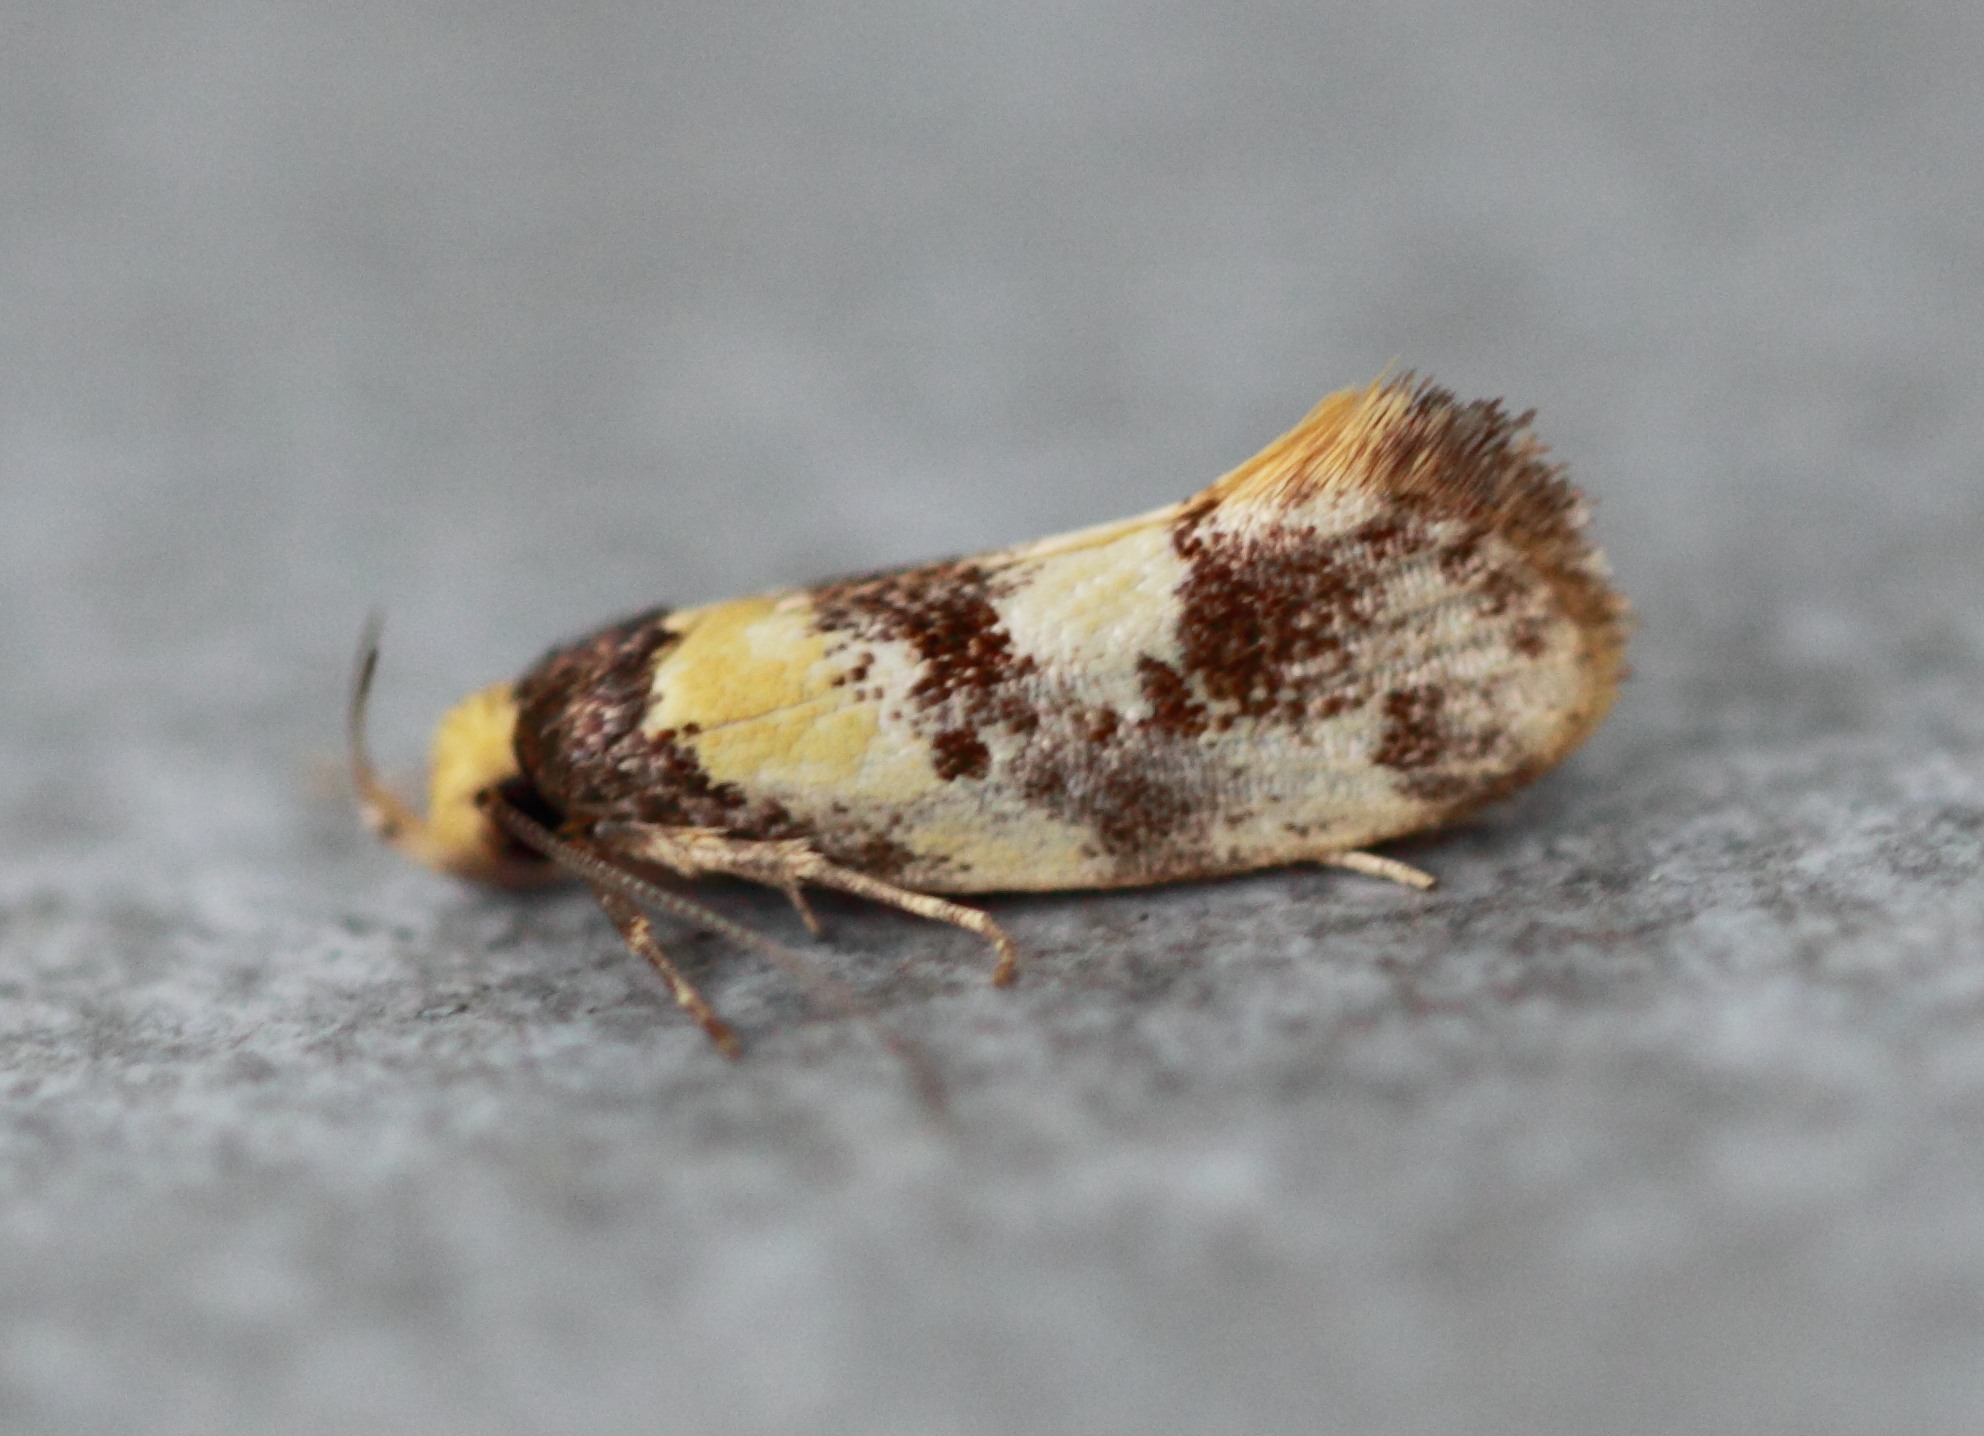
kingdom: Animalia
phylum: Arthropoda
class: Insecta
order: Lepidoptera
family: Oecophoridae
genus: Eulechria
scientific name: Eulechria marmorata
